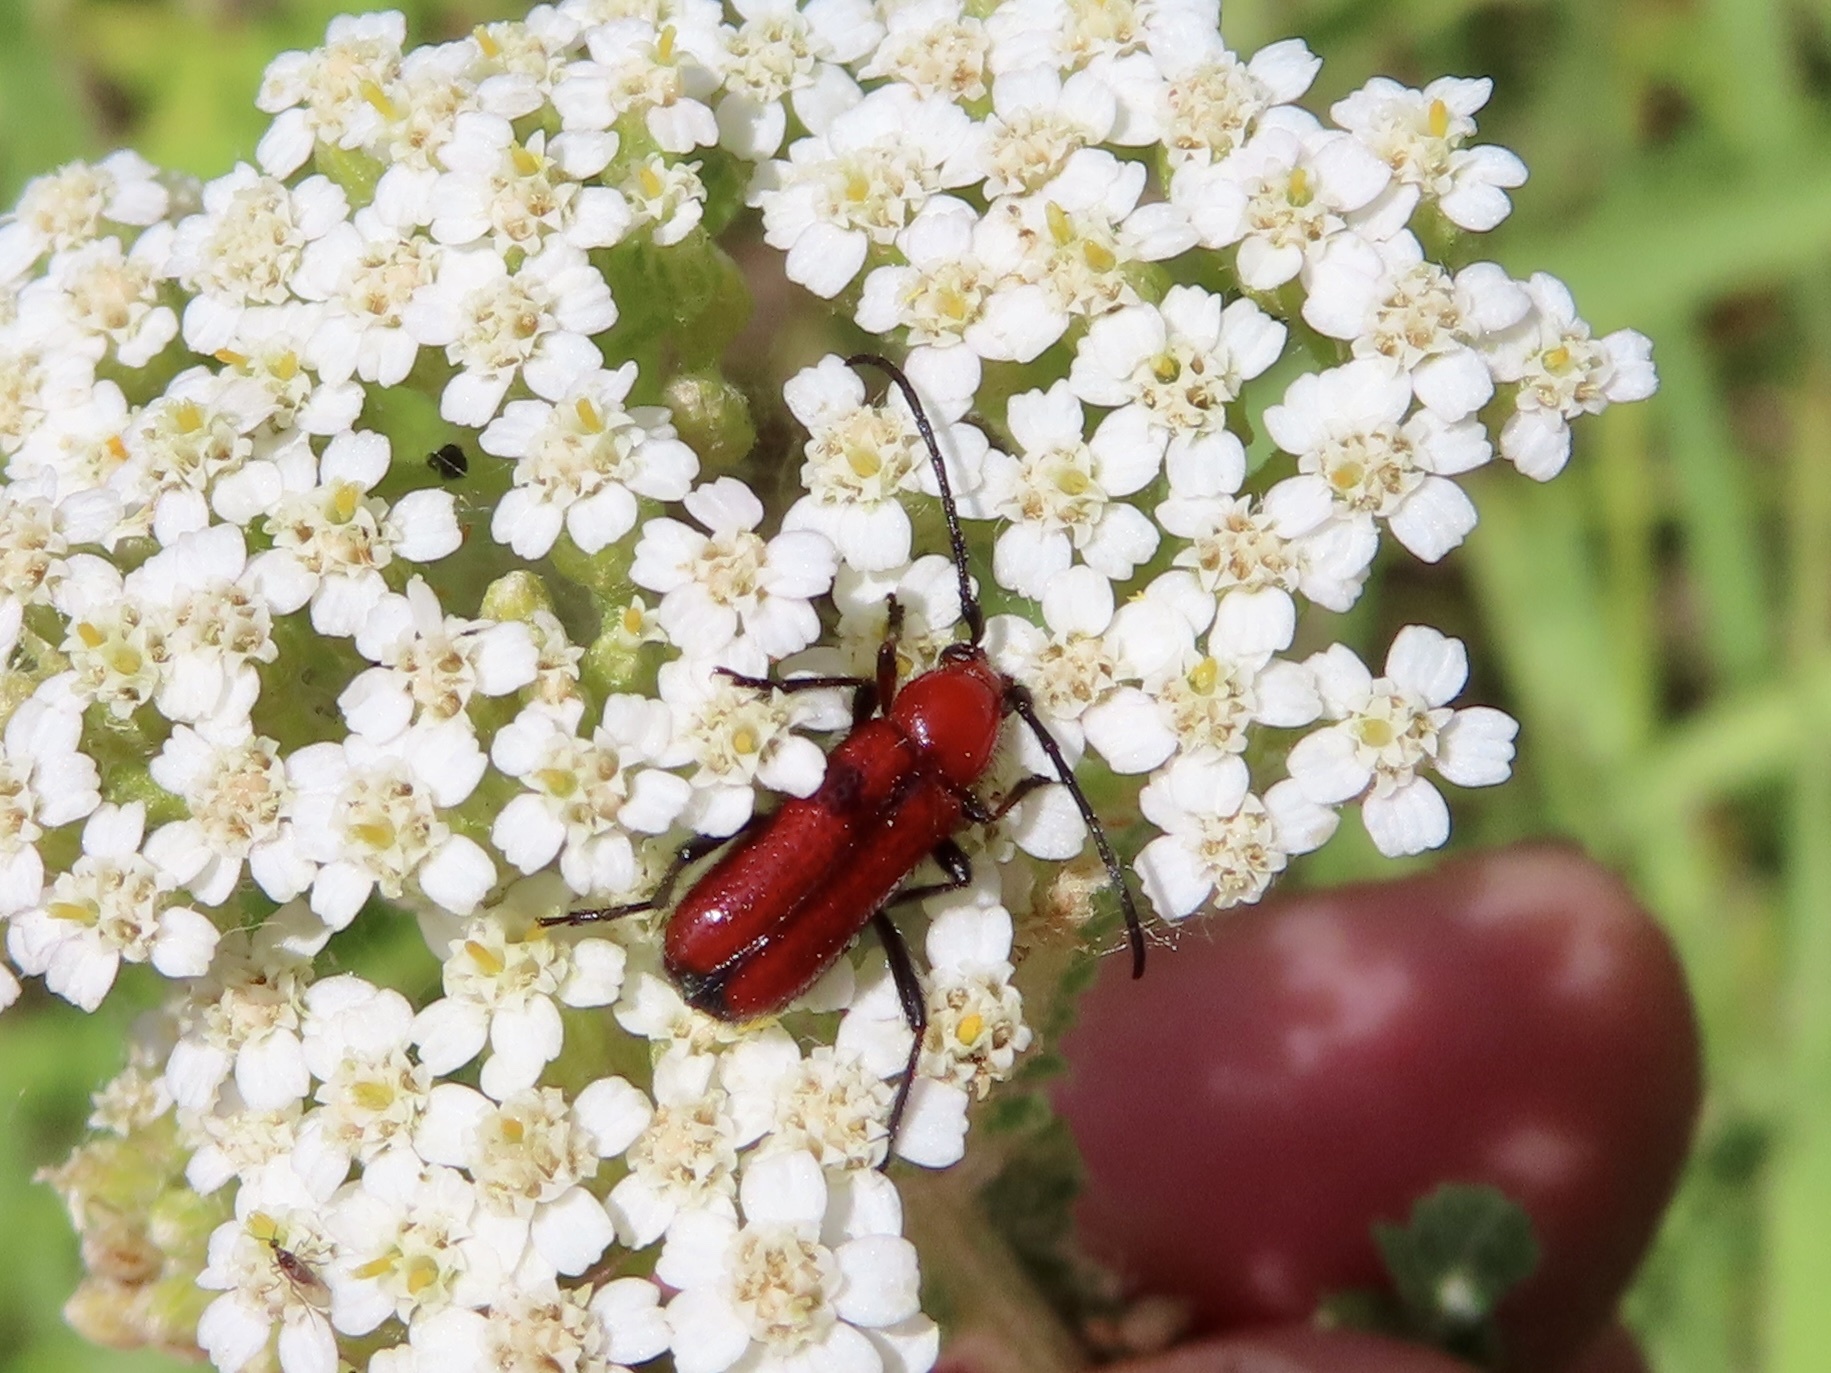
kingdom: Animalia
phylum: Arthropoda
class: Insecta
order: Coleoptera
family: Cerambycidae
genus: Batyle
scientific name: Batyle suturalis
